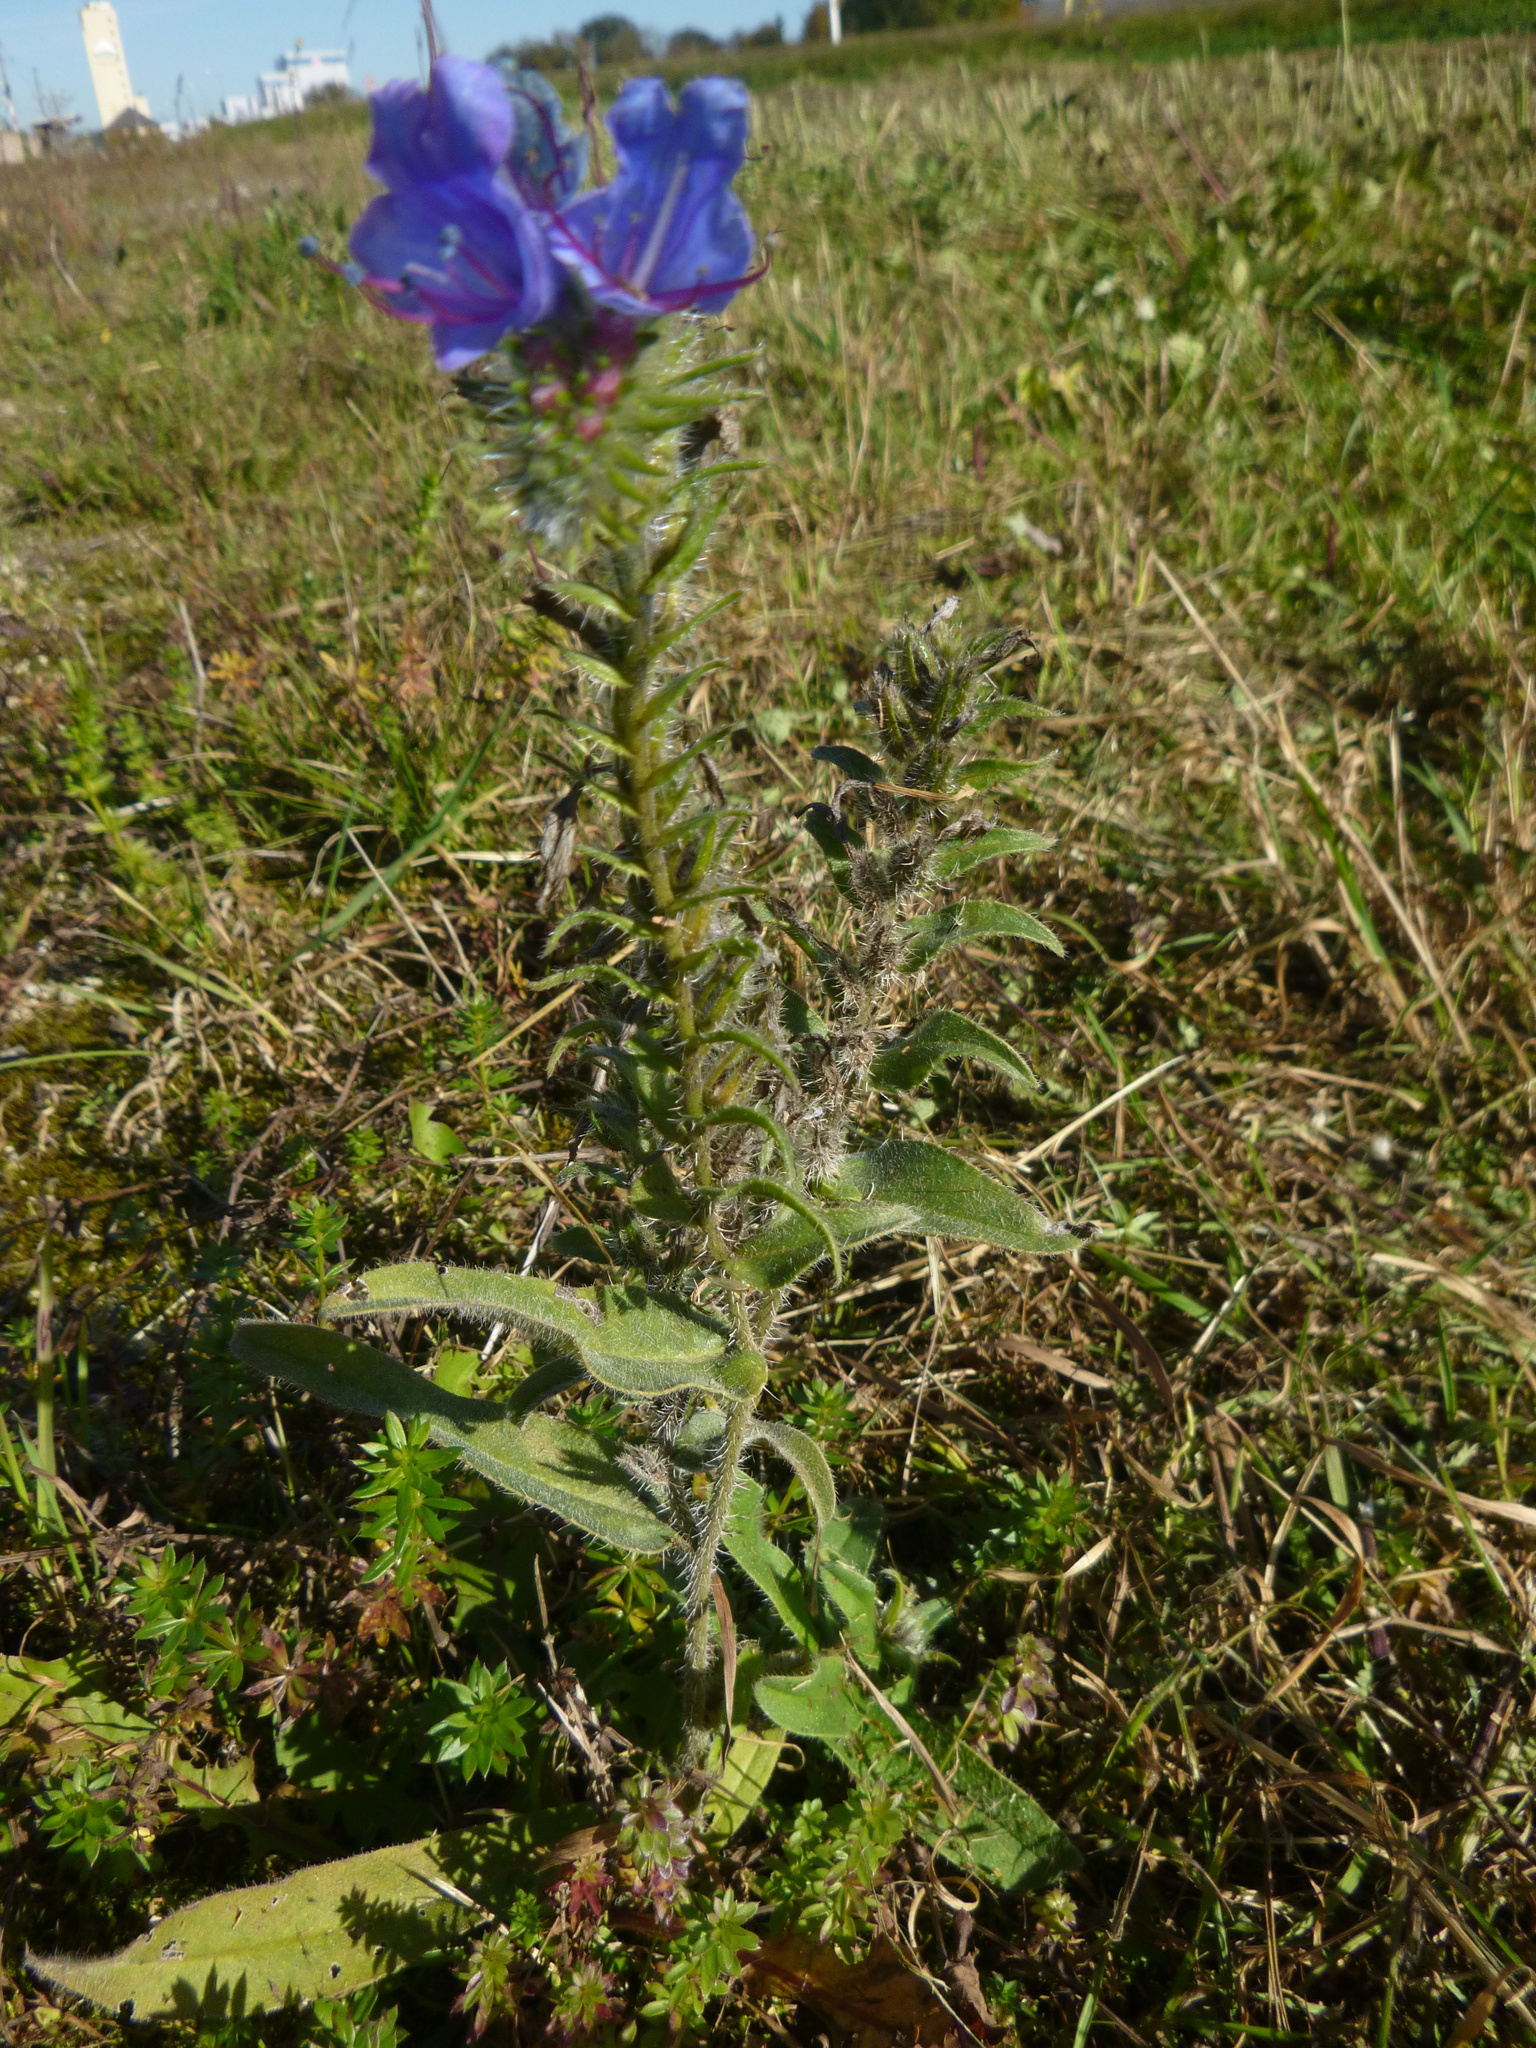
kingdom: Plantae
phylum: Tracheophyta
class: Magnoliopsida
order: Boraginales
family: Boraginaceae
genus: Echium
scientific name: Echium vulgare
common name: Common viper's bugloss
